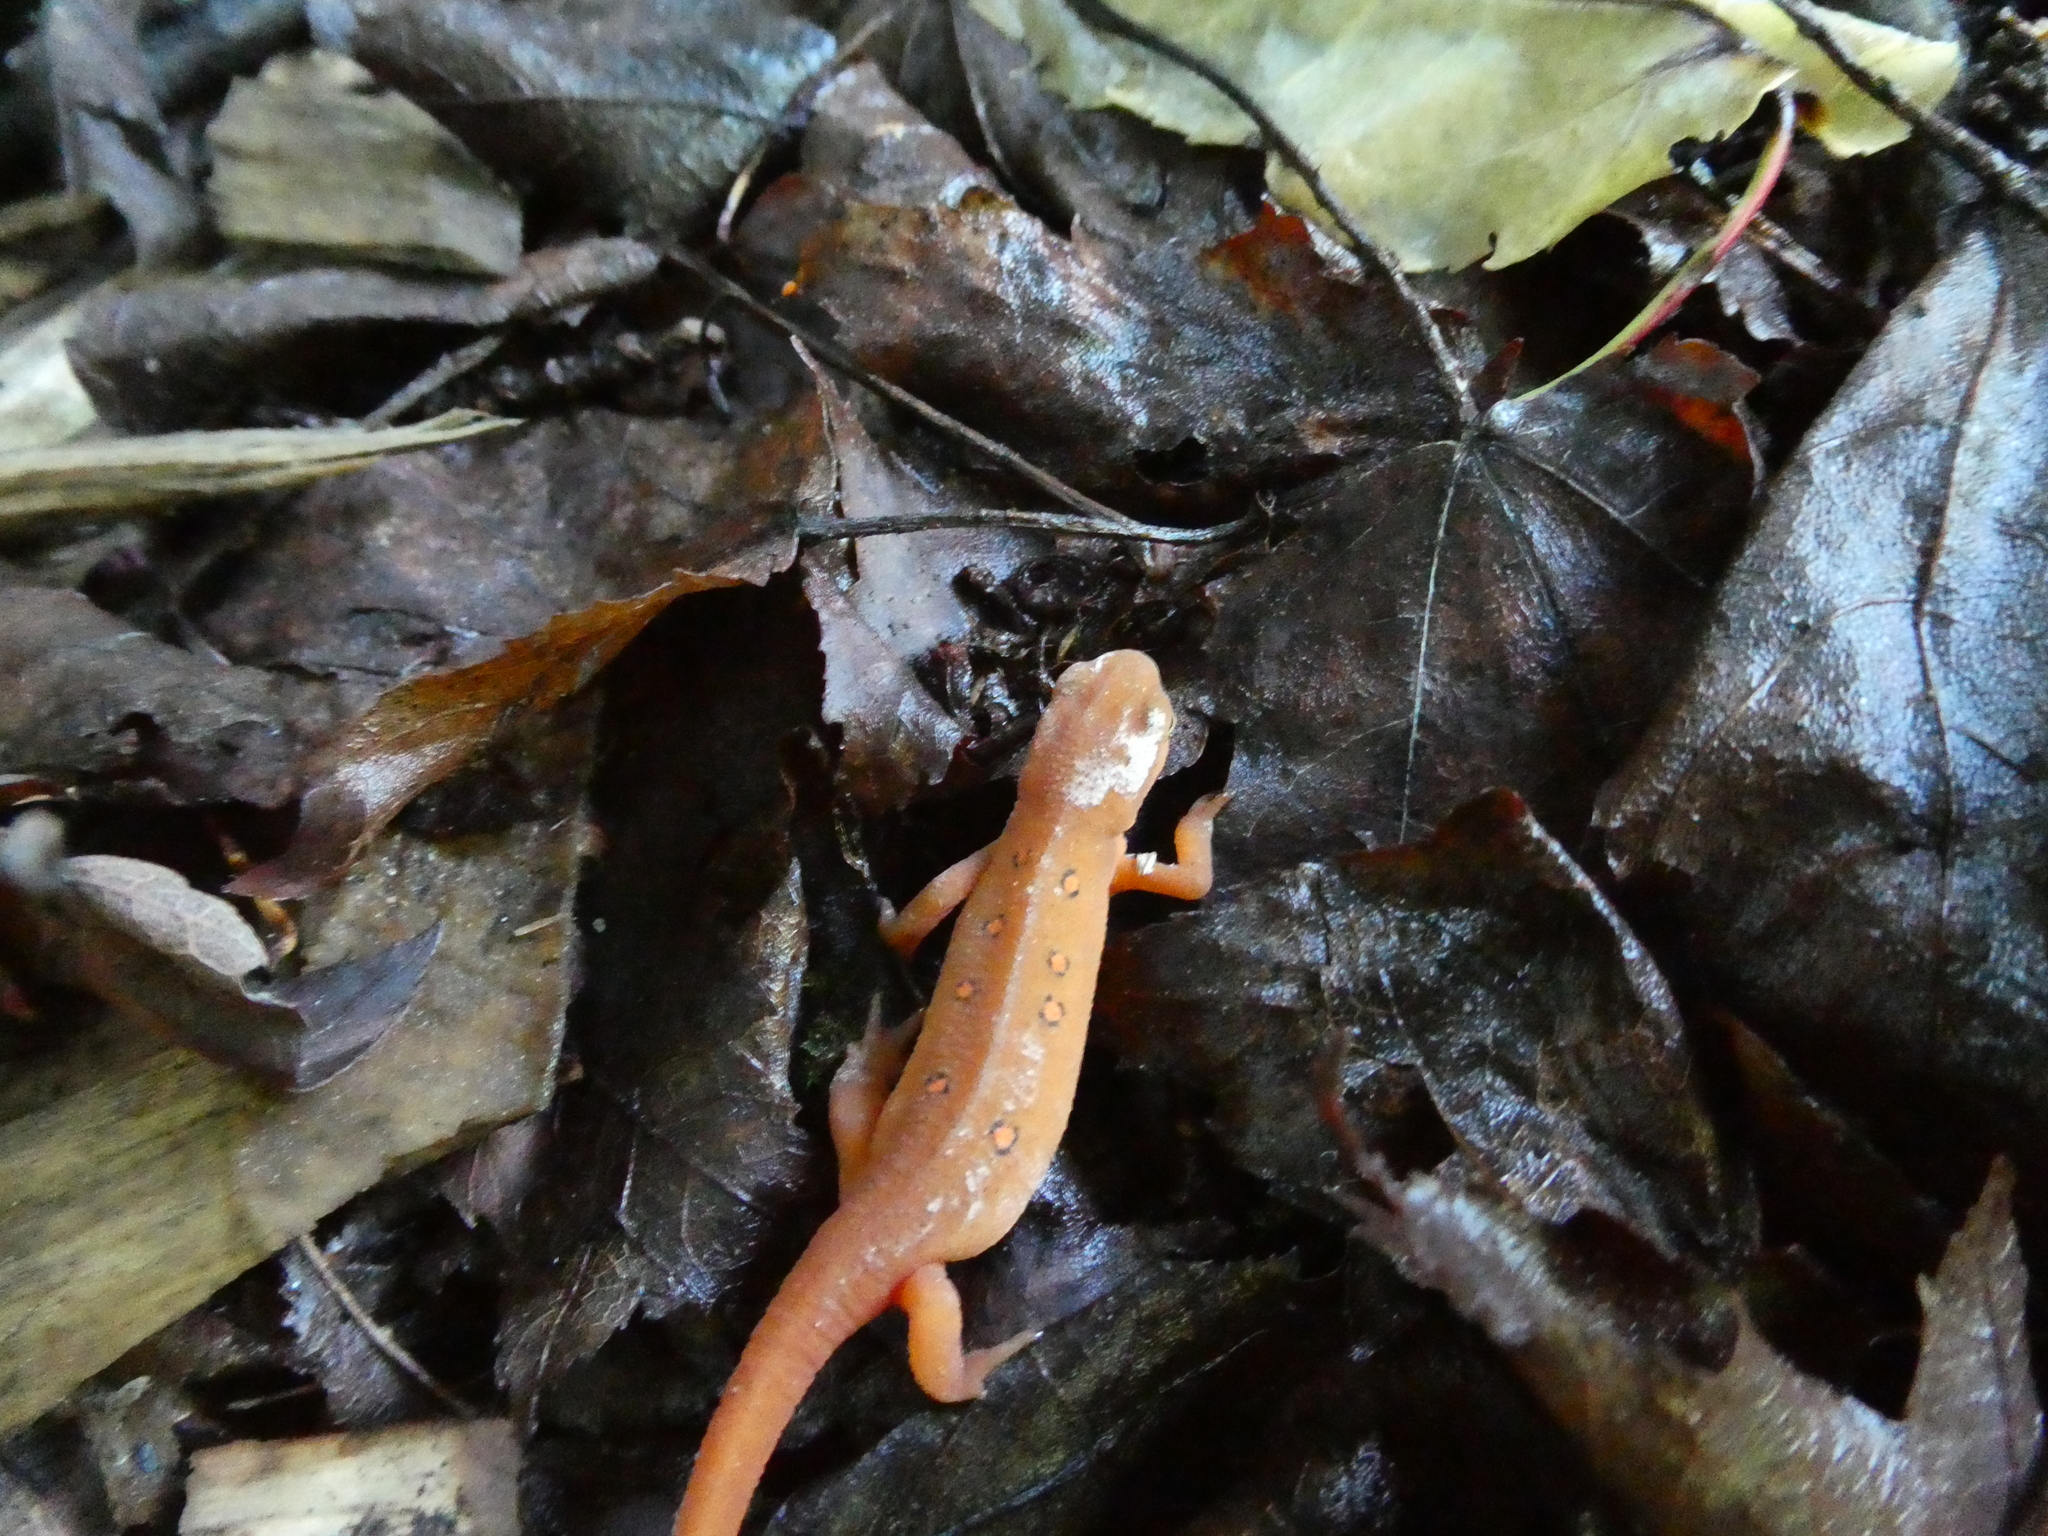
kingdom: Animalia
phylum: Chordata
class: Amphibia
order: Caudata
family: Salamandridae
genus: Notophthalmus
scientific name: Notophthalmus viridescens
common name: Eastern newt
